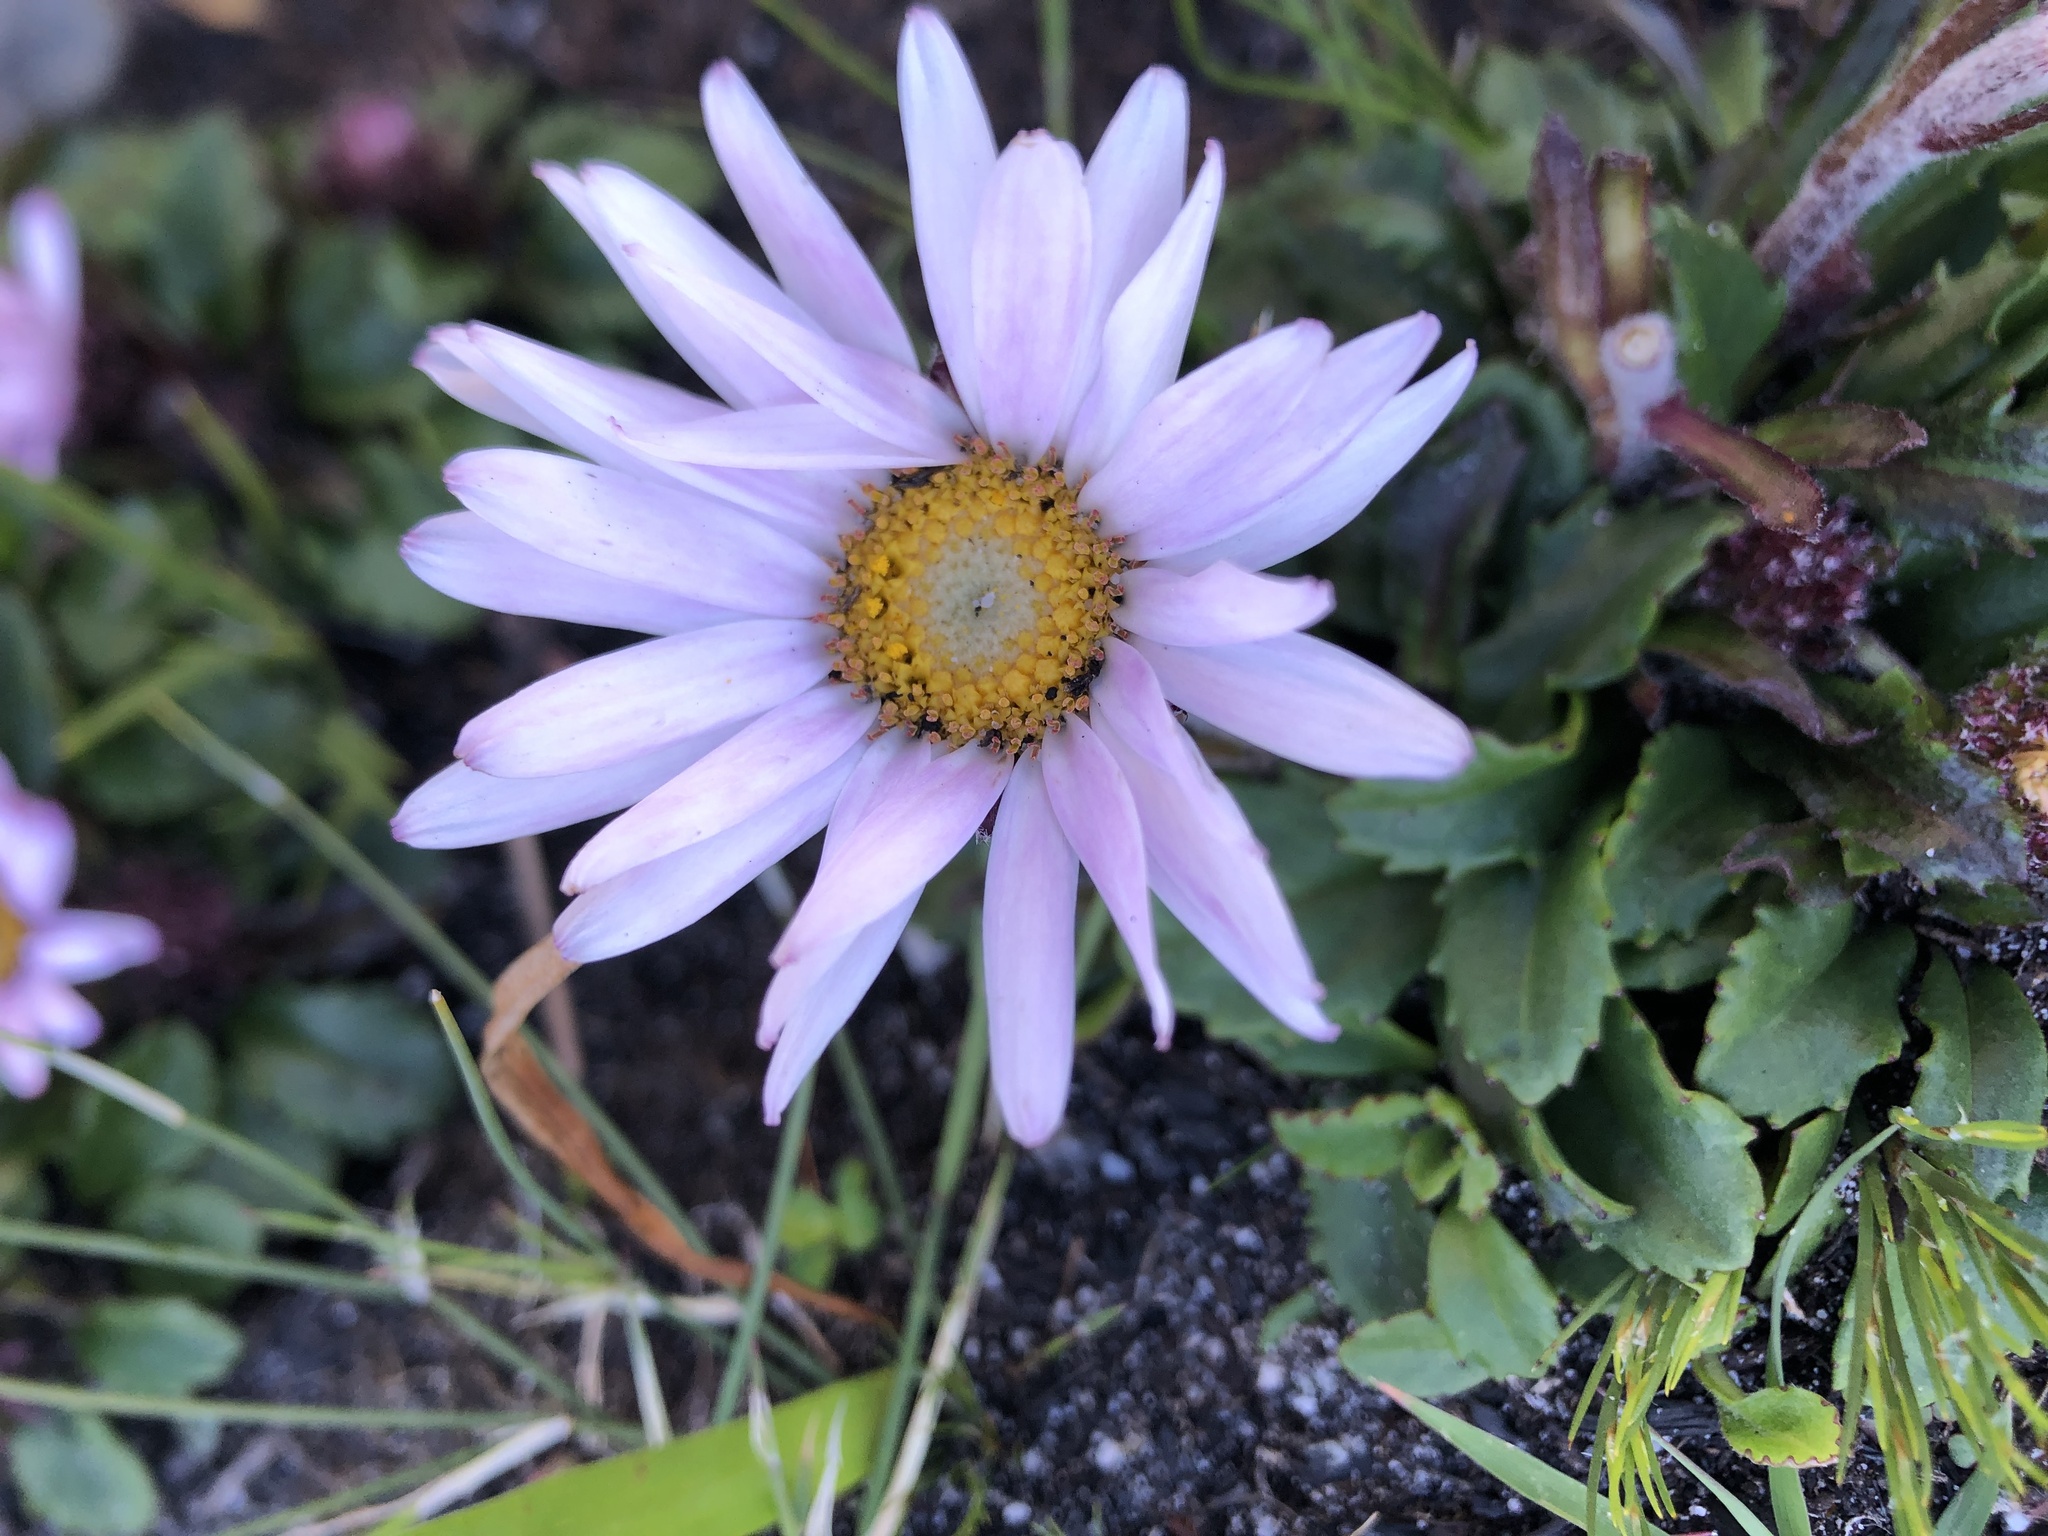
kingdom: Plantae
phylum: Tracheophyta
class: Magnoliopsida
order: Asterales
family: Asteraceae
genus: Zyrphelis
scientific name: Zyrphelis crenata
